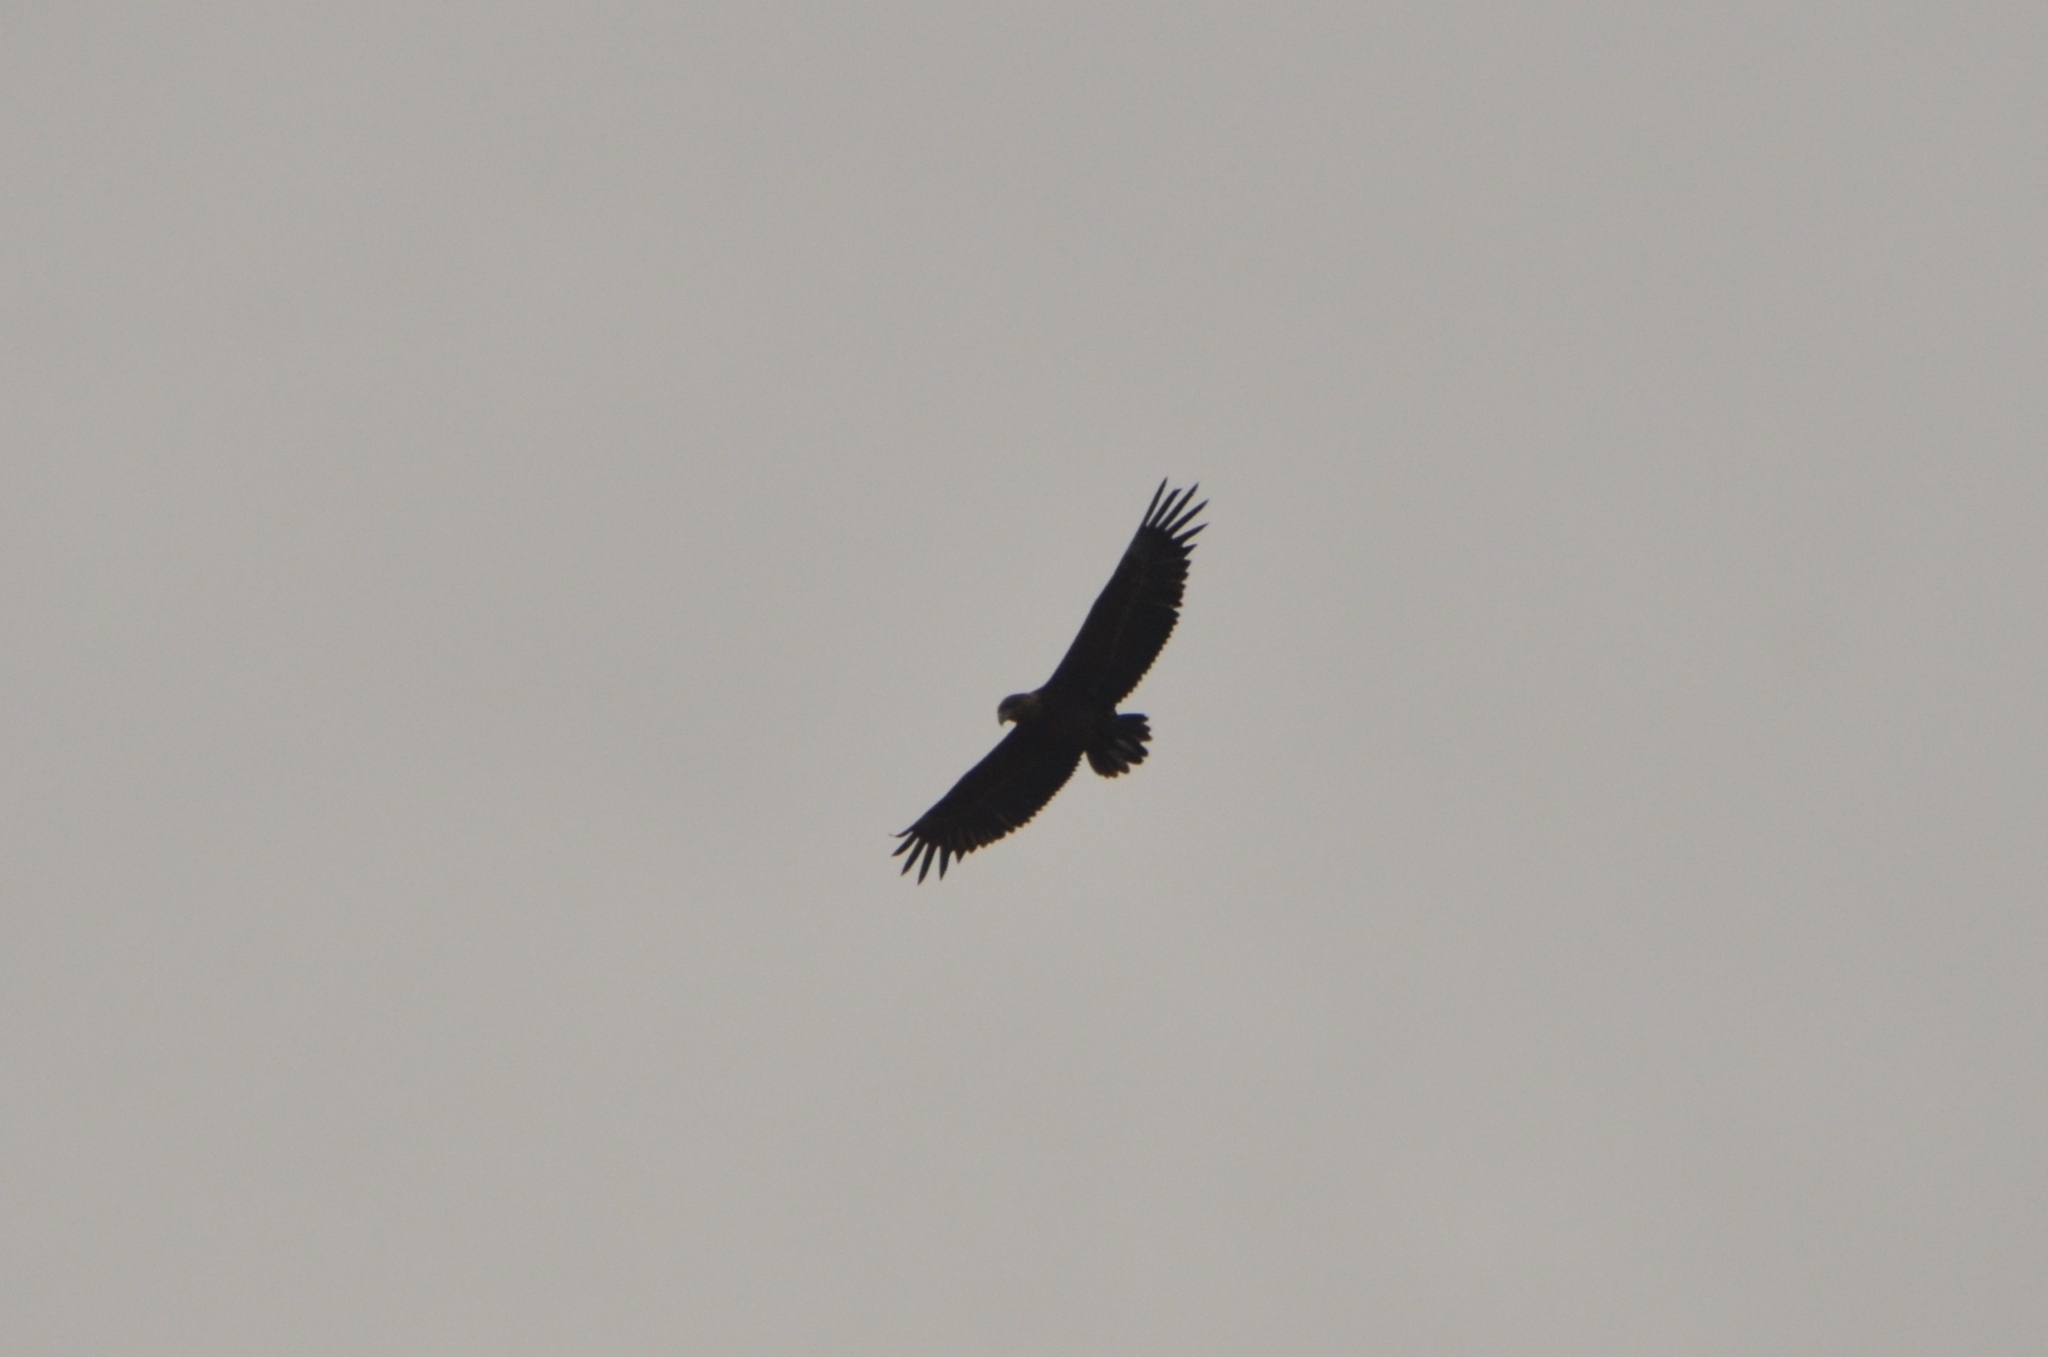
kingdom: Animalia
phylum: Chordata
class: Aves
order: Accipitriformes
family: Accipitridae
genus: Terathopius
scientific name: Terathopius ecaudatus
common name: Bateleur
